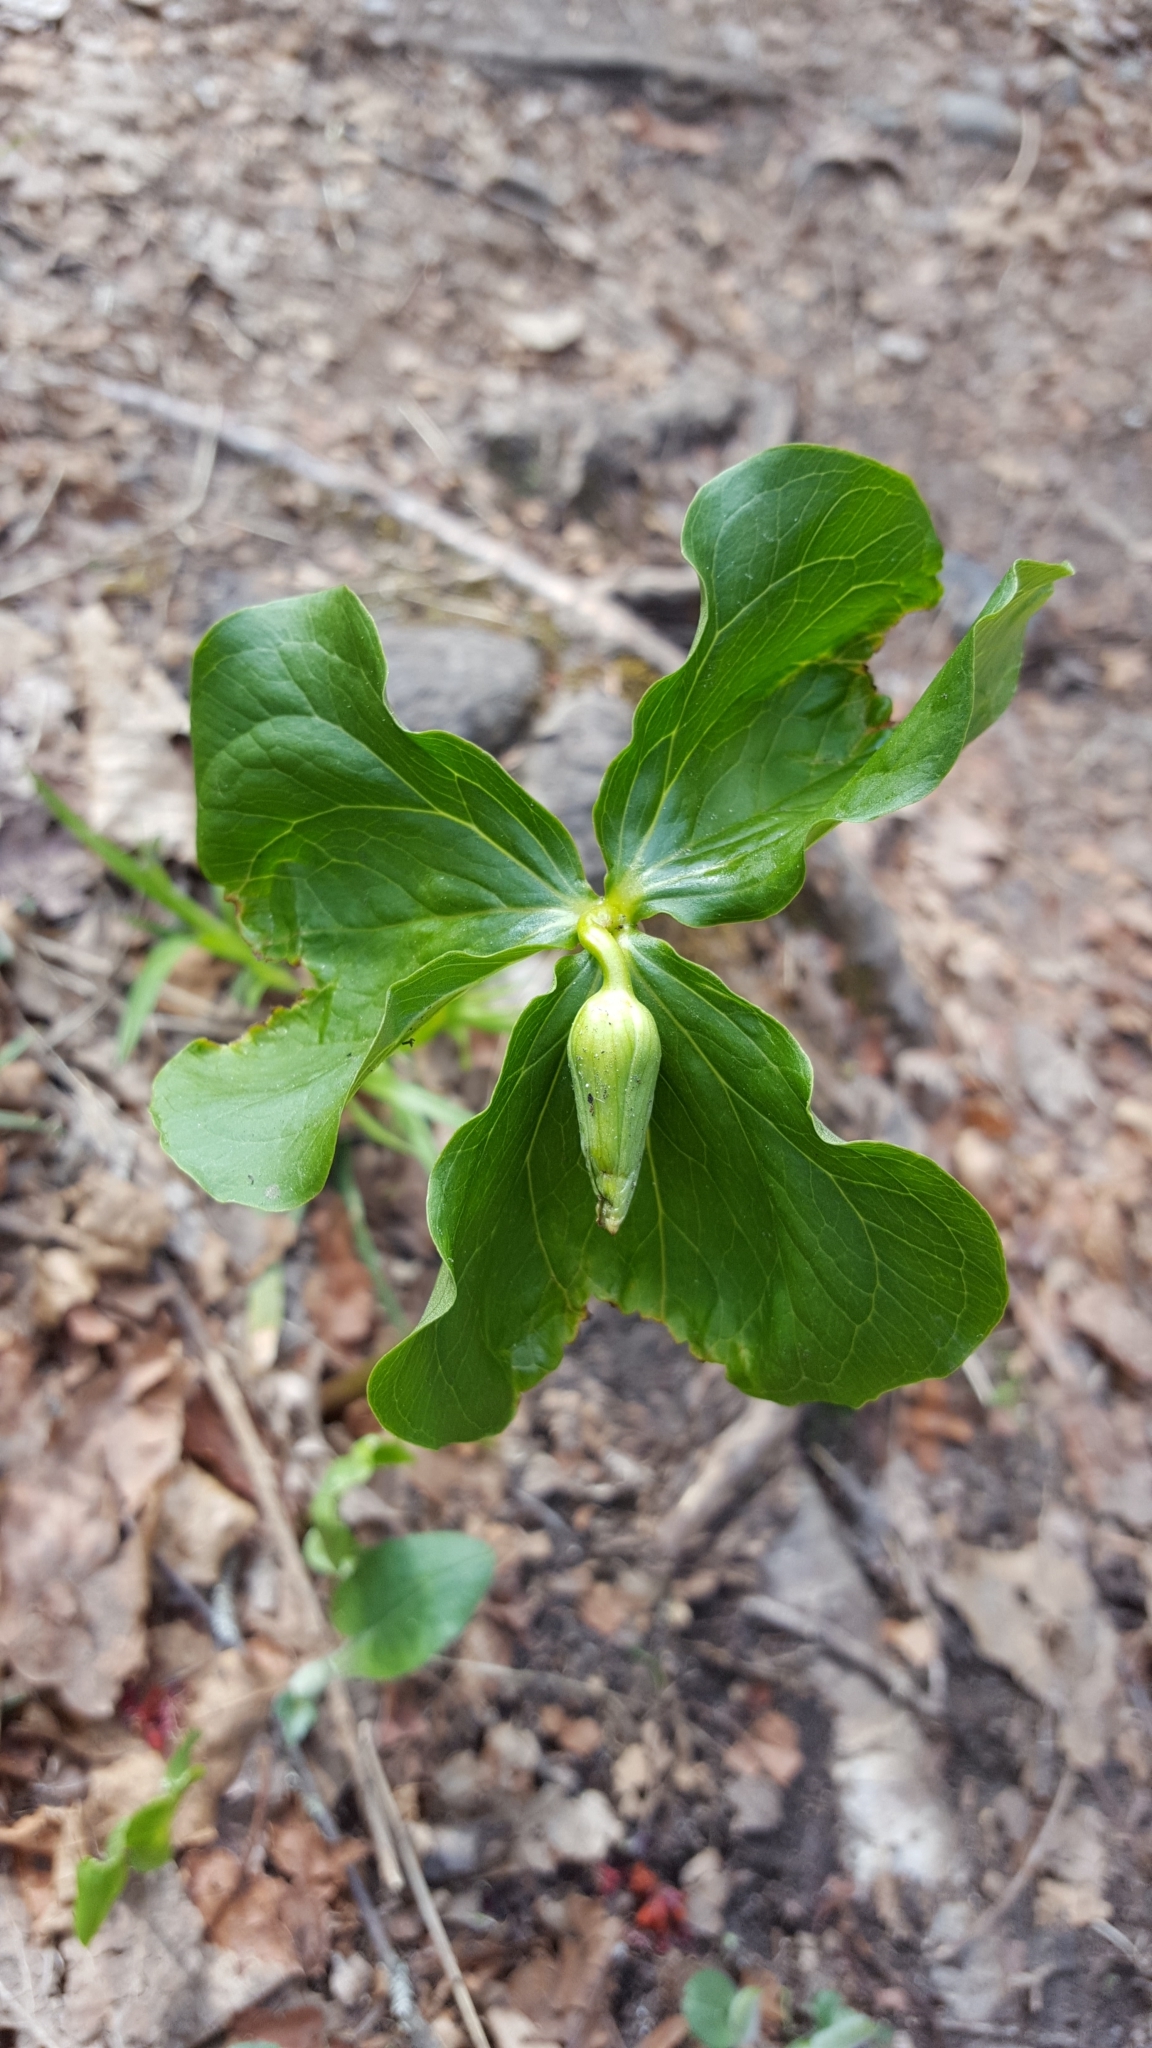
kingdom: Plantae
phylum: Tracheophyta
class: Liliopsida
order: Liliales
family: Melanthiaceae
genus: Trillium
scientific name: Trillium cernuum
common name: Nodding trillium
